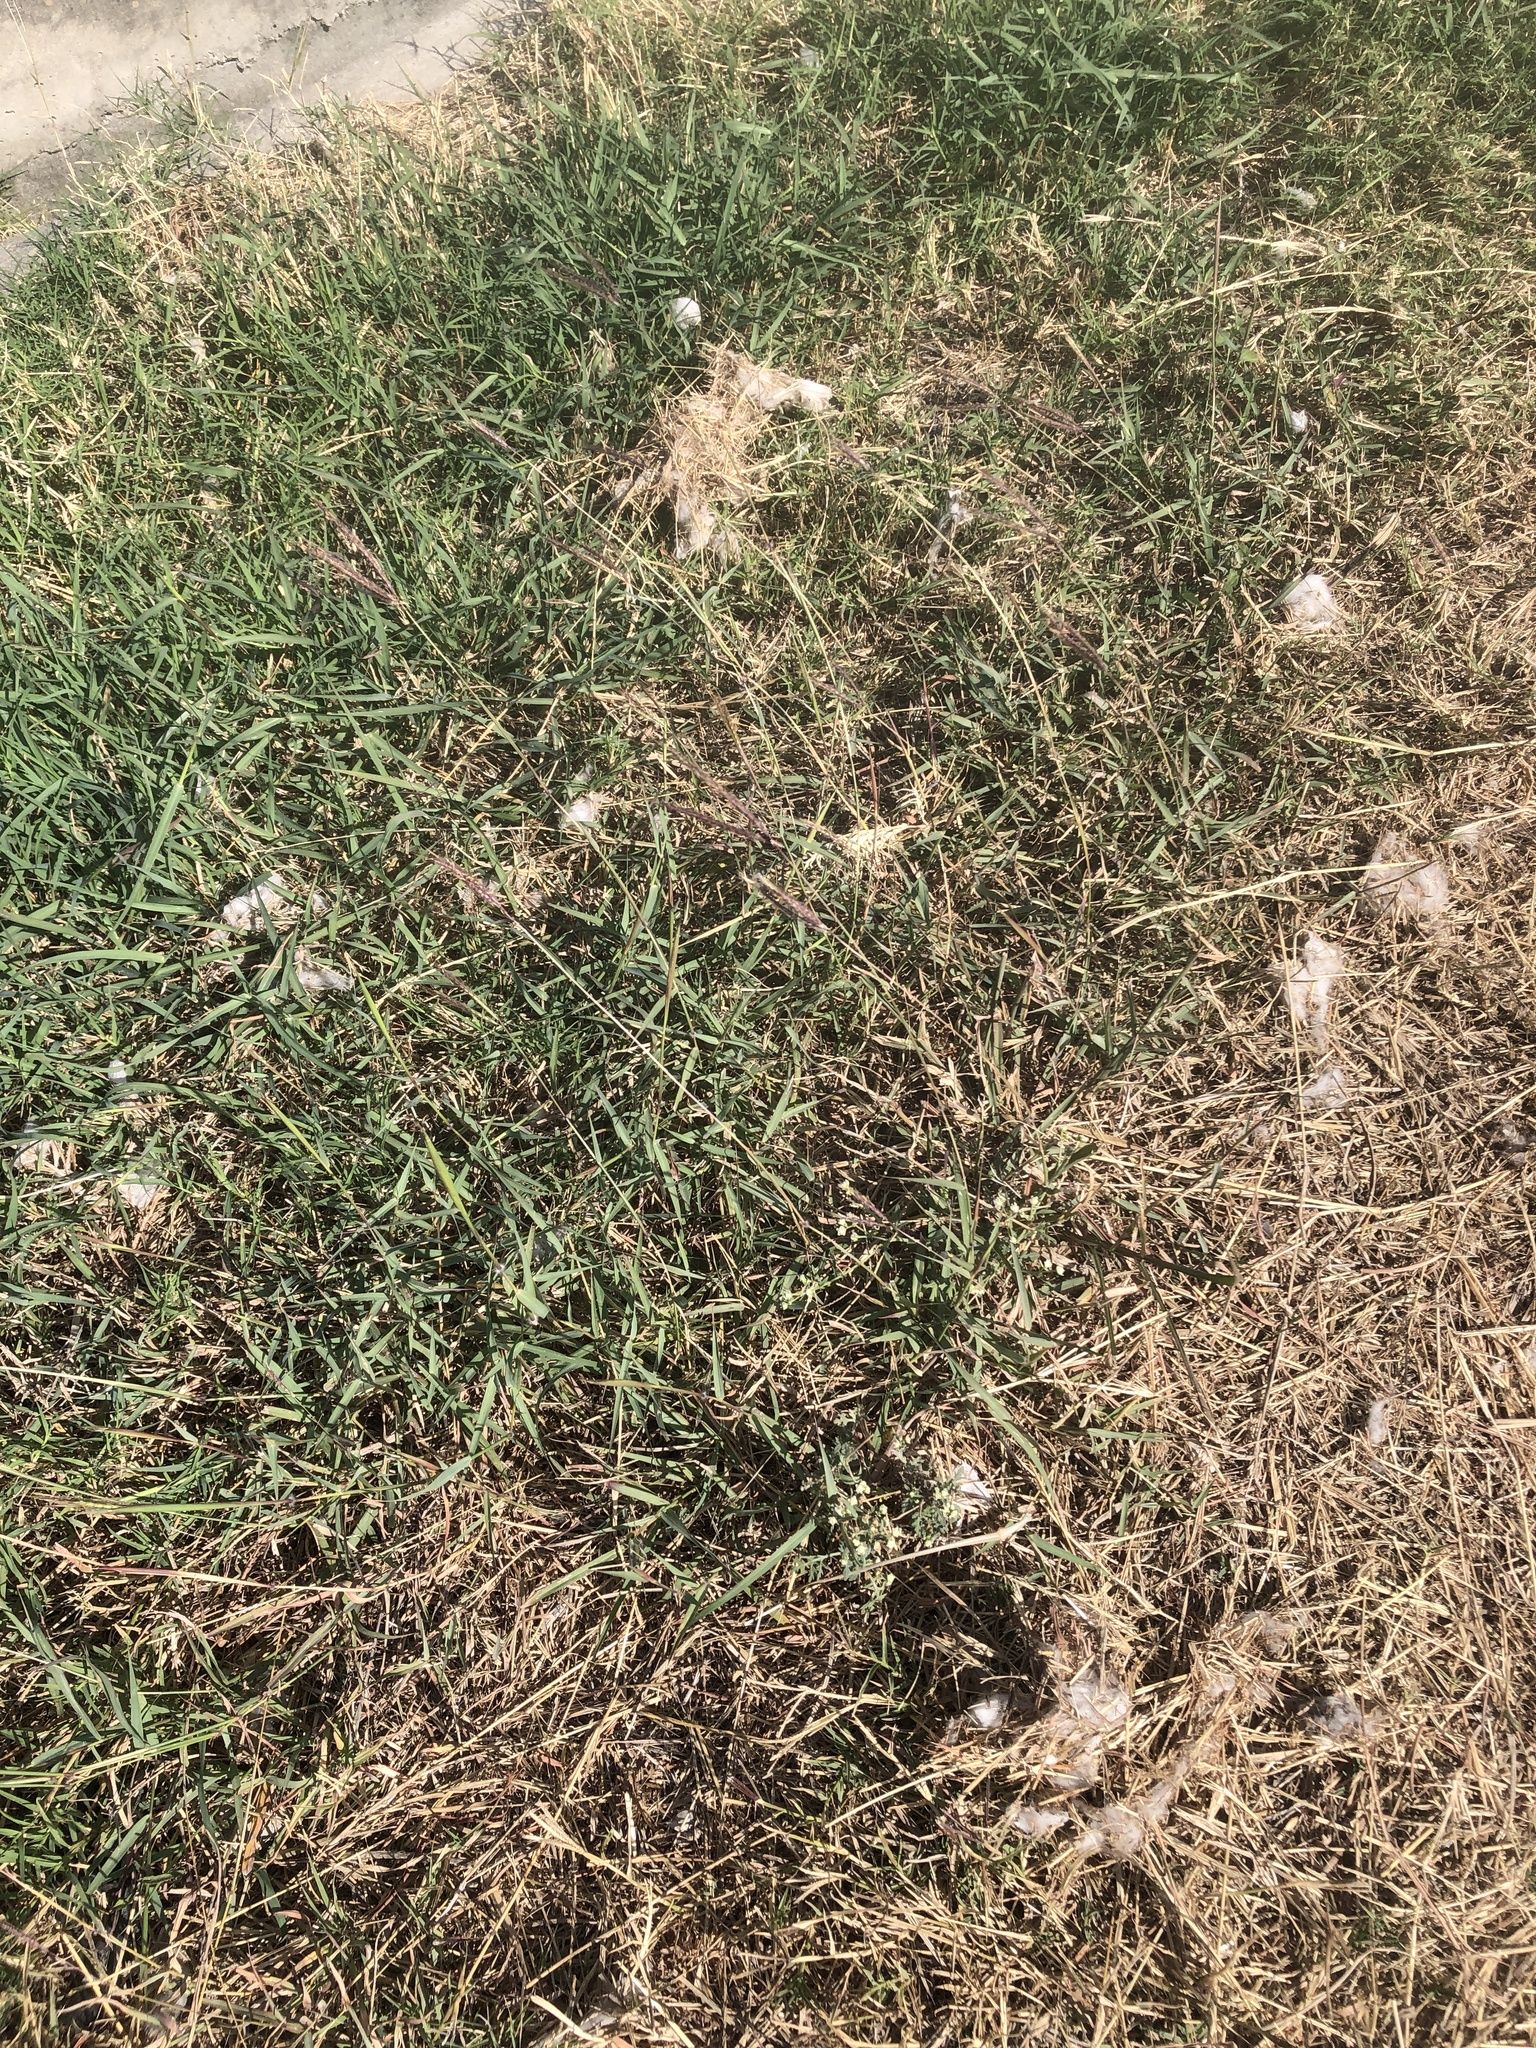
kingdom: Plantae
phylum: Tracheophyta
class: Liliopsida
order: Poales
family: Poaceae
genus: Dichanthium
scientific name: Dichanthium annulatum
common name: Kleberg's bluestem
